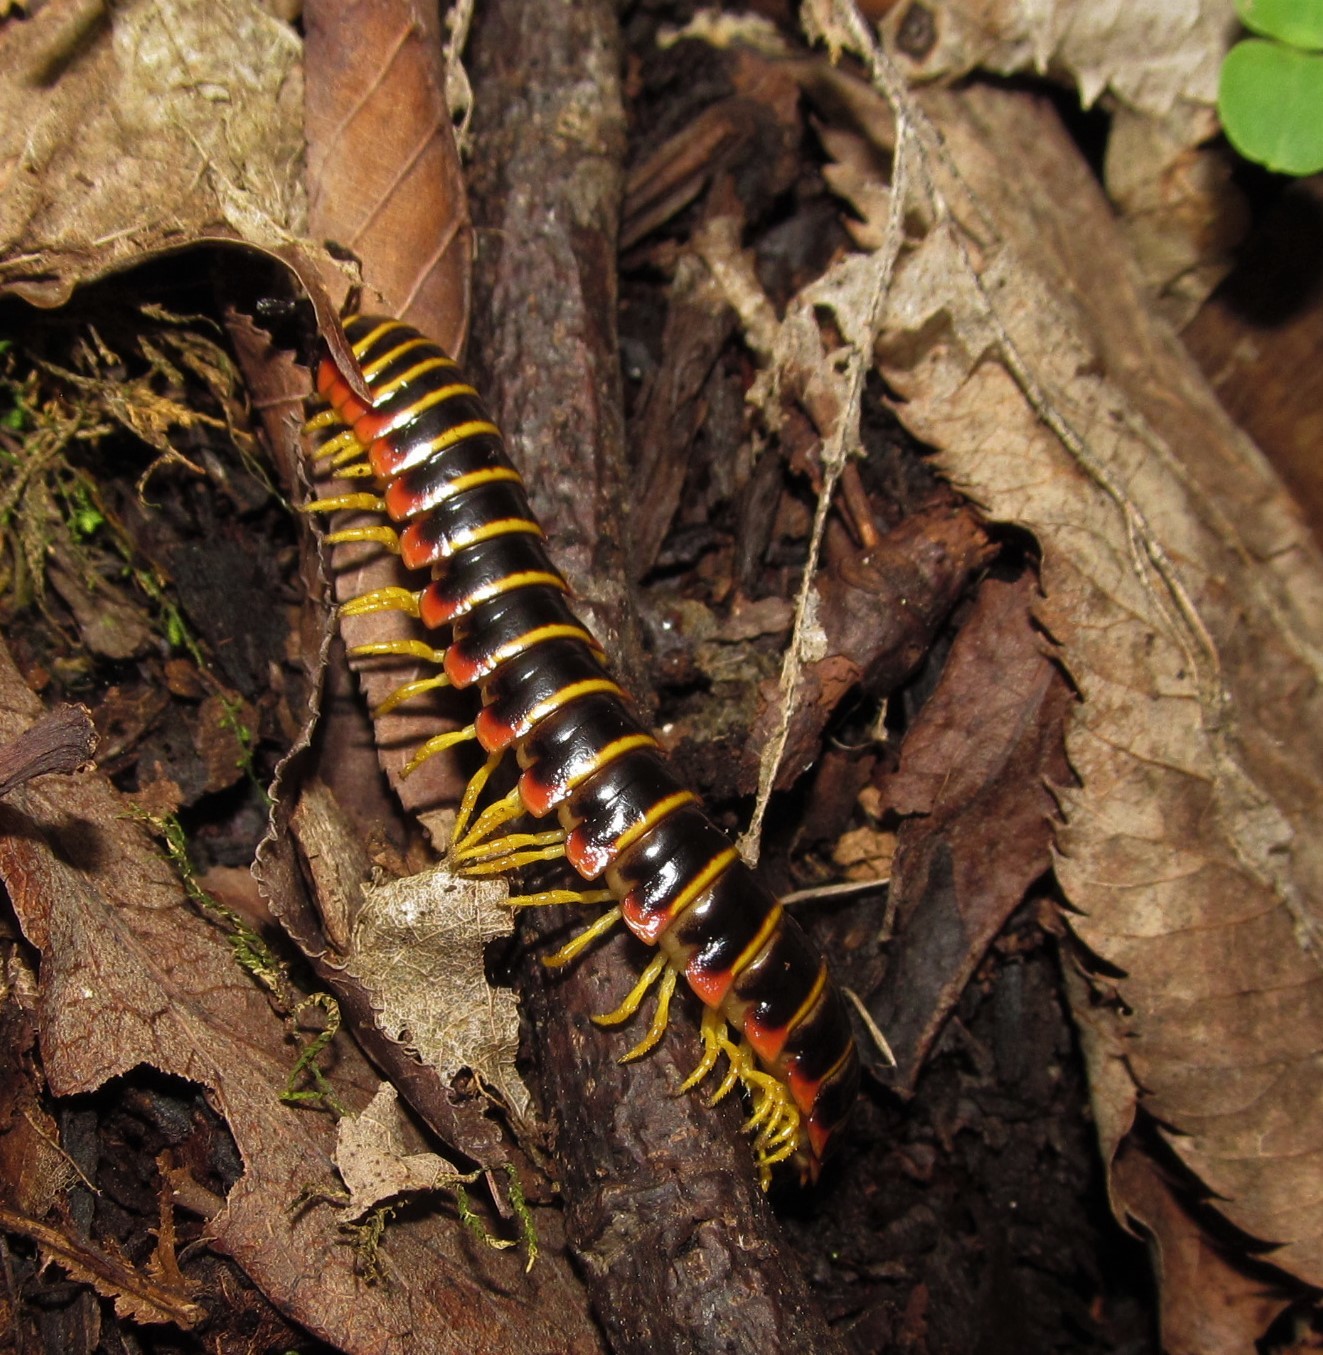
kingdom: Animalia
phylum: Arthropoda
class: Diplopoda
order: Polydesmida
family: Xystodesmidae
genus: Apheloria
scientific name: Apheloria virginiensis
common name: Black-and-gold flat millipede
